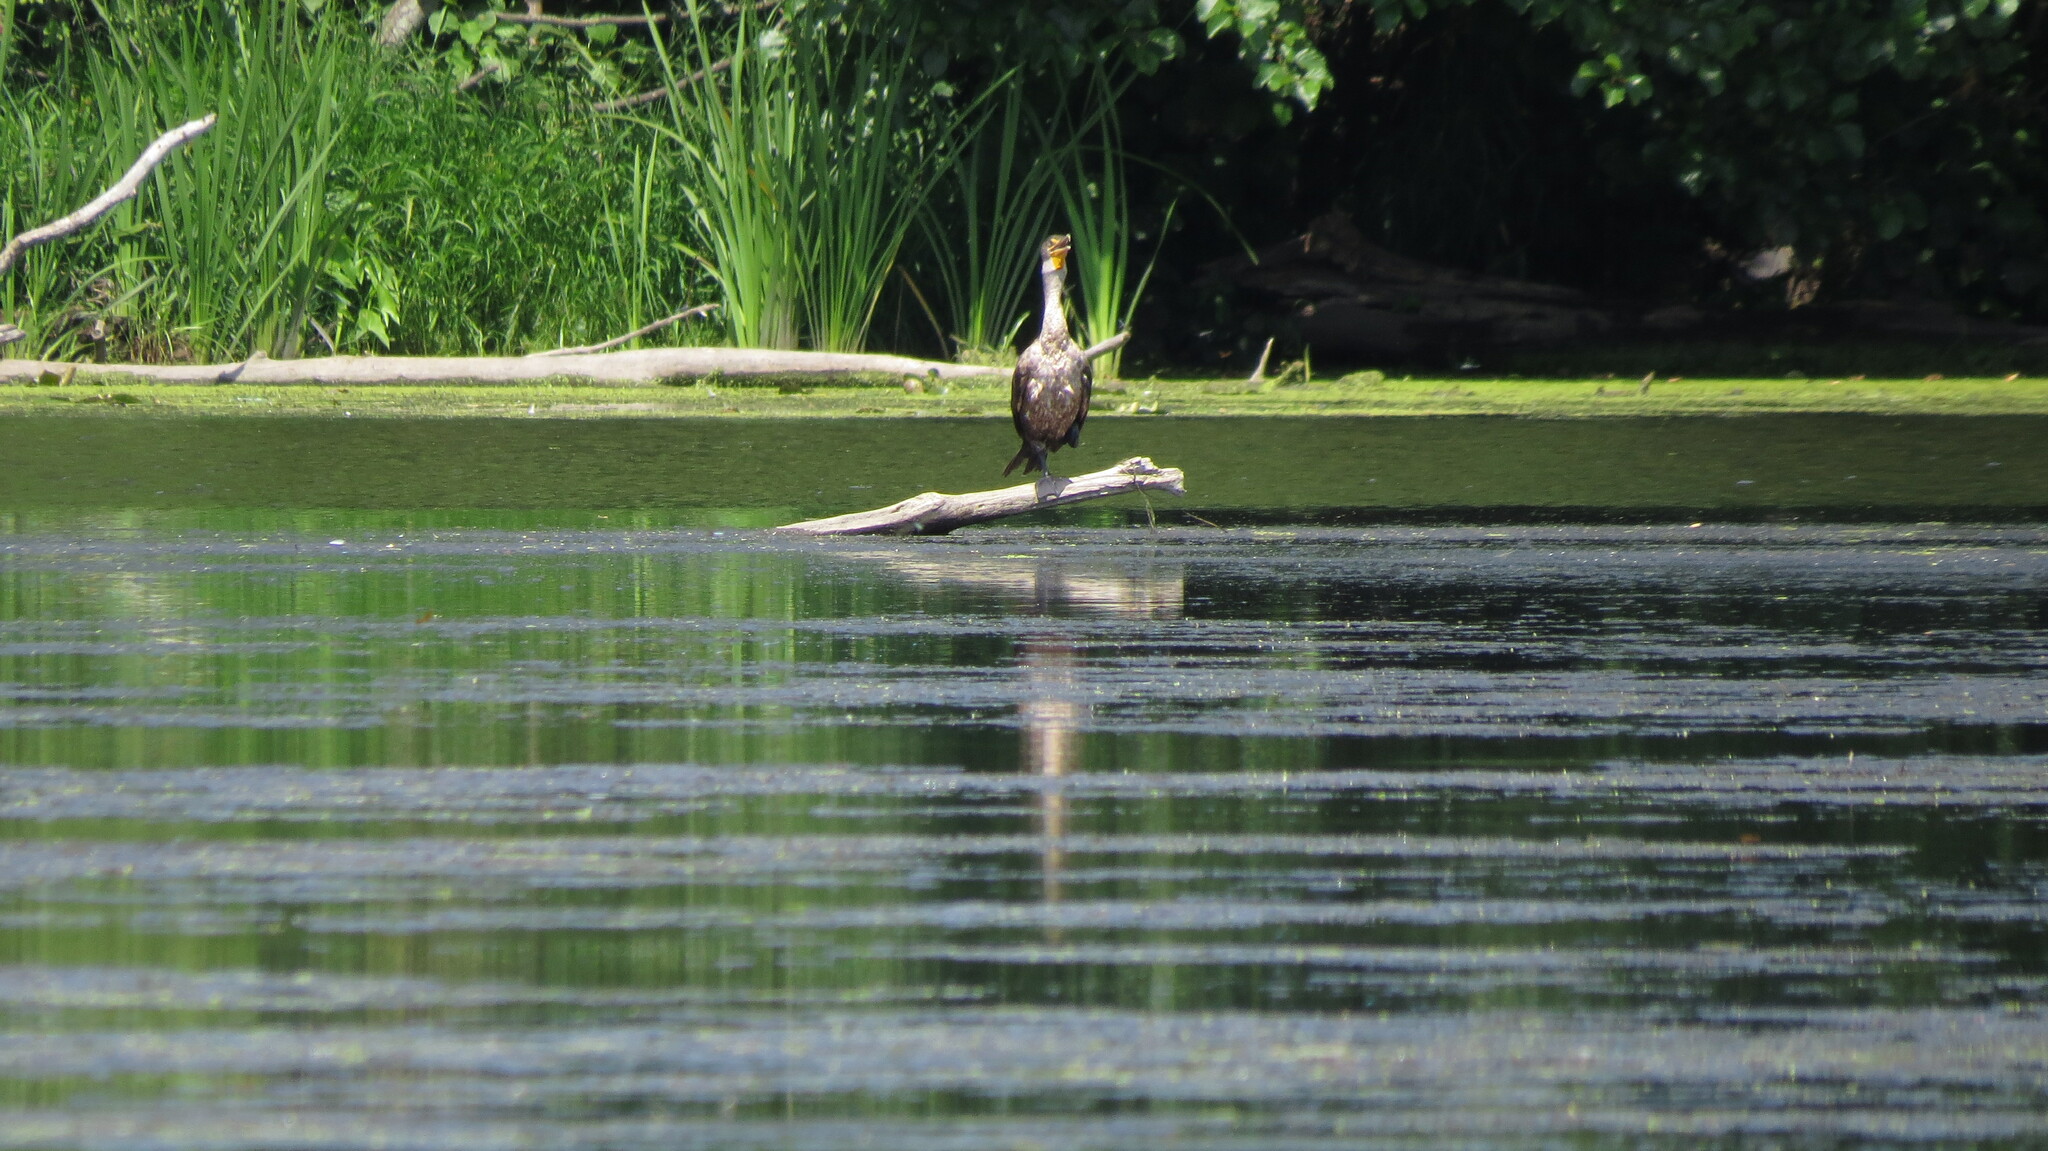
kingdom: Animalia
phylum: Chordata
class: Aves
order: Suliformes
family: Phalacrocoracidae
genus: Phalacrocorax
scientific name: Phalacrocorax auritus
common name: Double-crested cormorant
